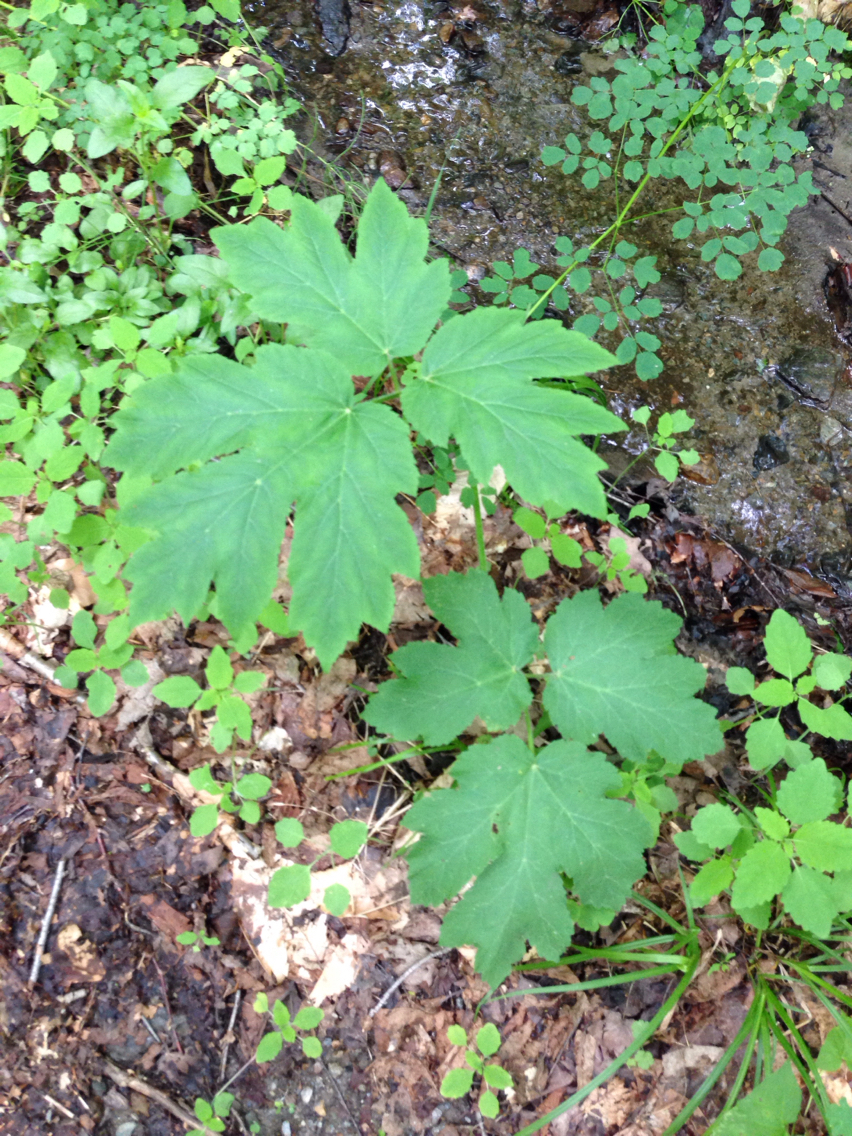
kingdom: Plantae
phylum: Tracheophyta
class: Magnoliopsida
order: Apiales
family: Apiaceae
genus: Heracleum
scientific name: Heracleum maximum
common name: American cow parsnip
